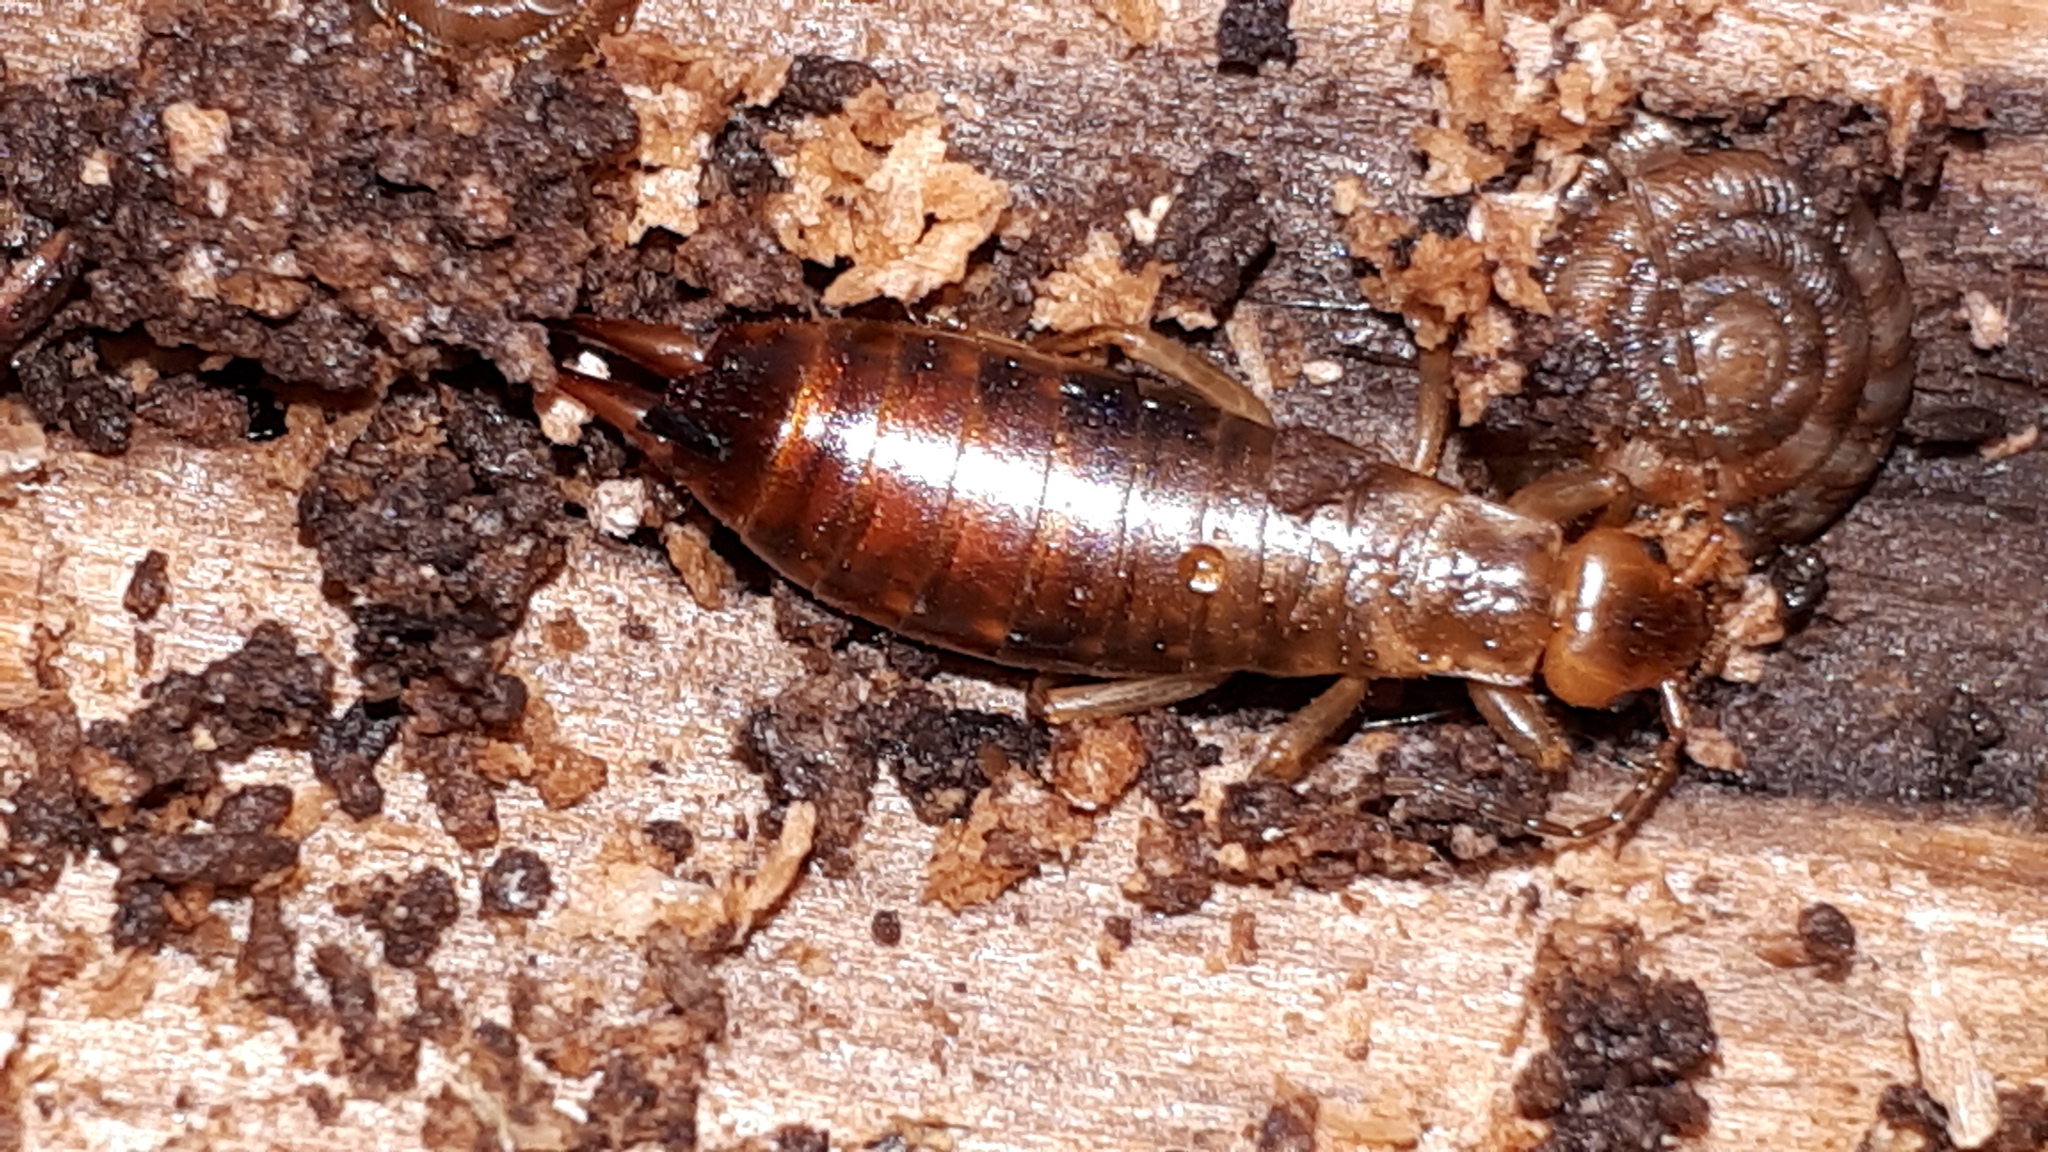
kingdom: Animalia
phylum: Arthropoda
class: Insecta
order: Dermaptera
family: Forficulidae
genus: Chelidurella
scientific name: Chelidurella acanthopygia
